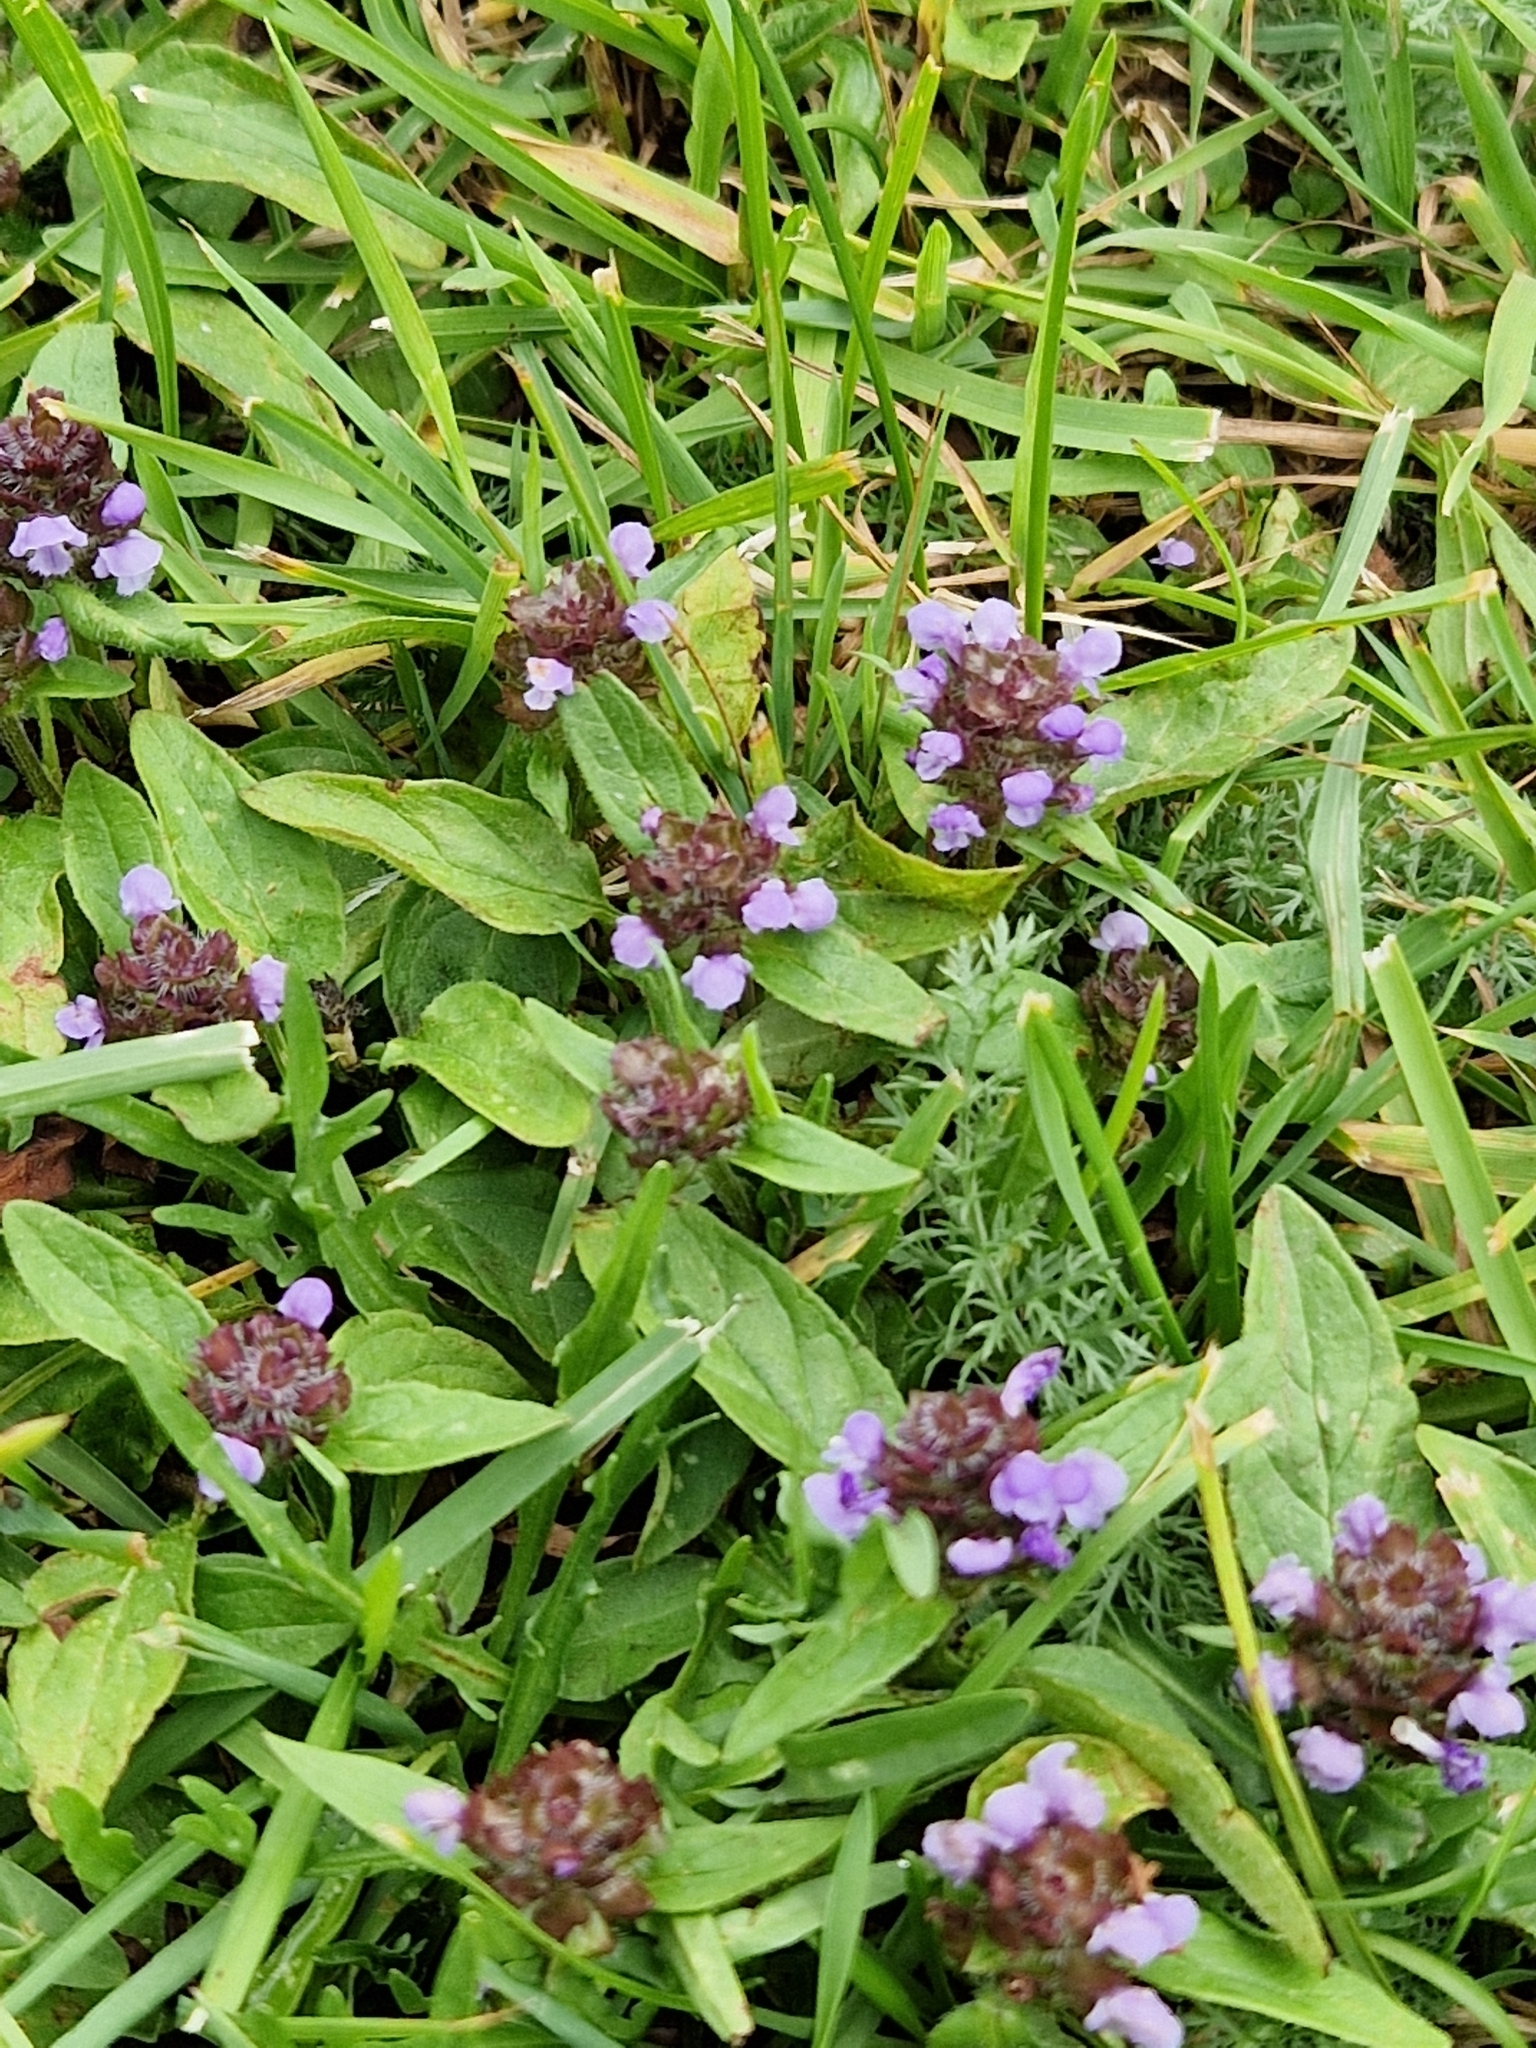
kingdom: Plantae
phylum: Tracheophyta
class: Magnoliopsida
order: Lamiales
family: Lamiaceae
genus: Prunella
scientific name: Prunella vulgaris
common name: Heal-all
